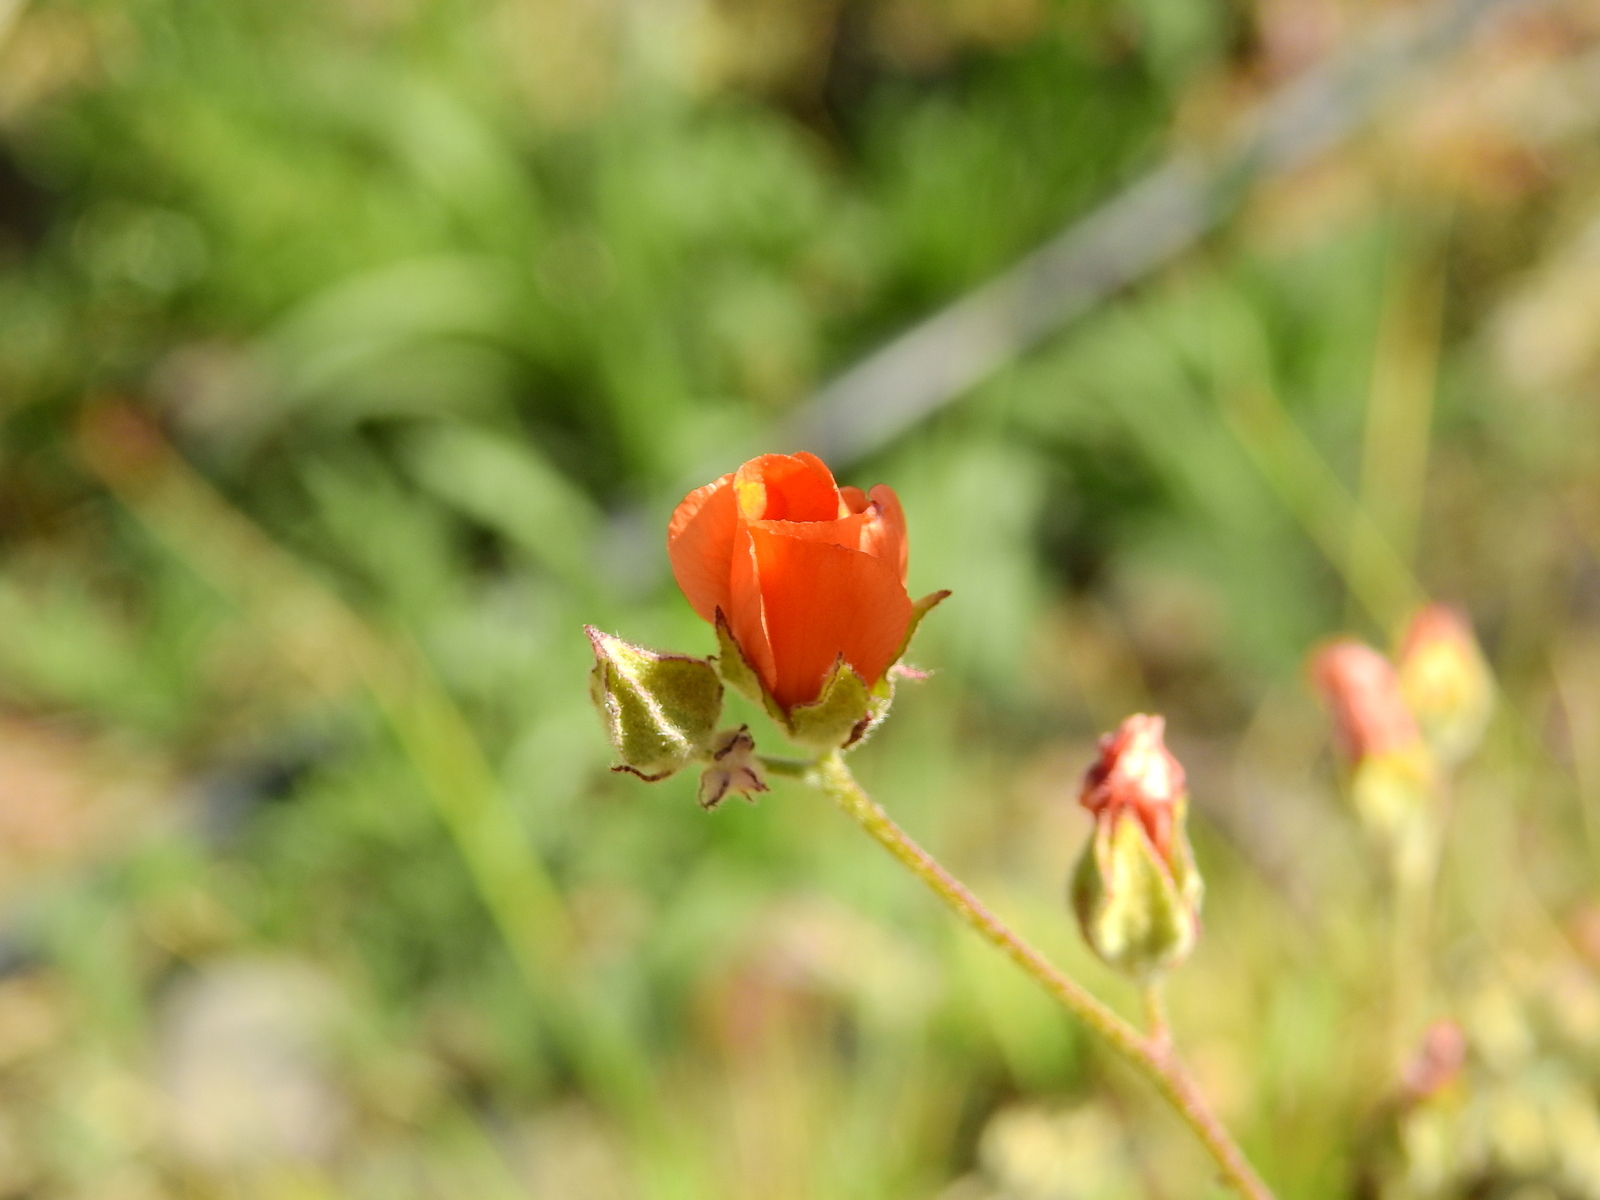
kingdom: Plantae
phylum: Tracheophyta
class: Magnoliopsida
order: Malvales
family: Malvaceae
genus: Sphaeralcea
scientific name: Sphaeralcea miniata
